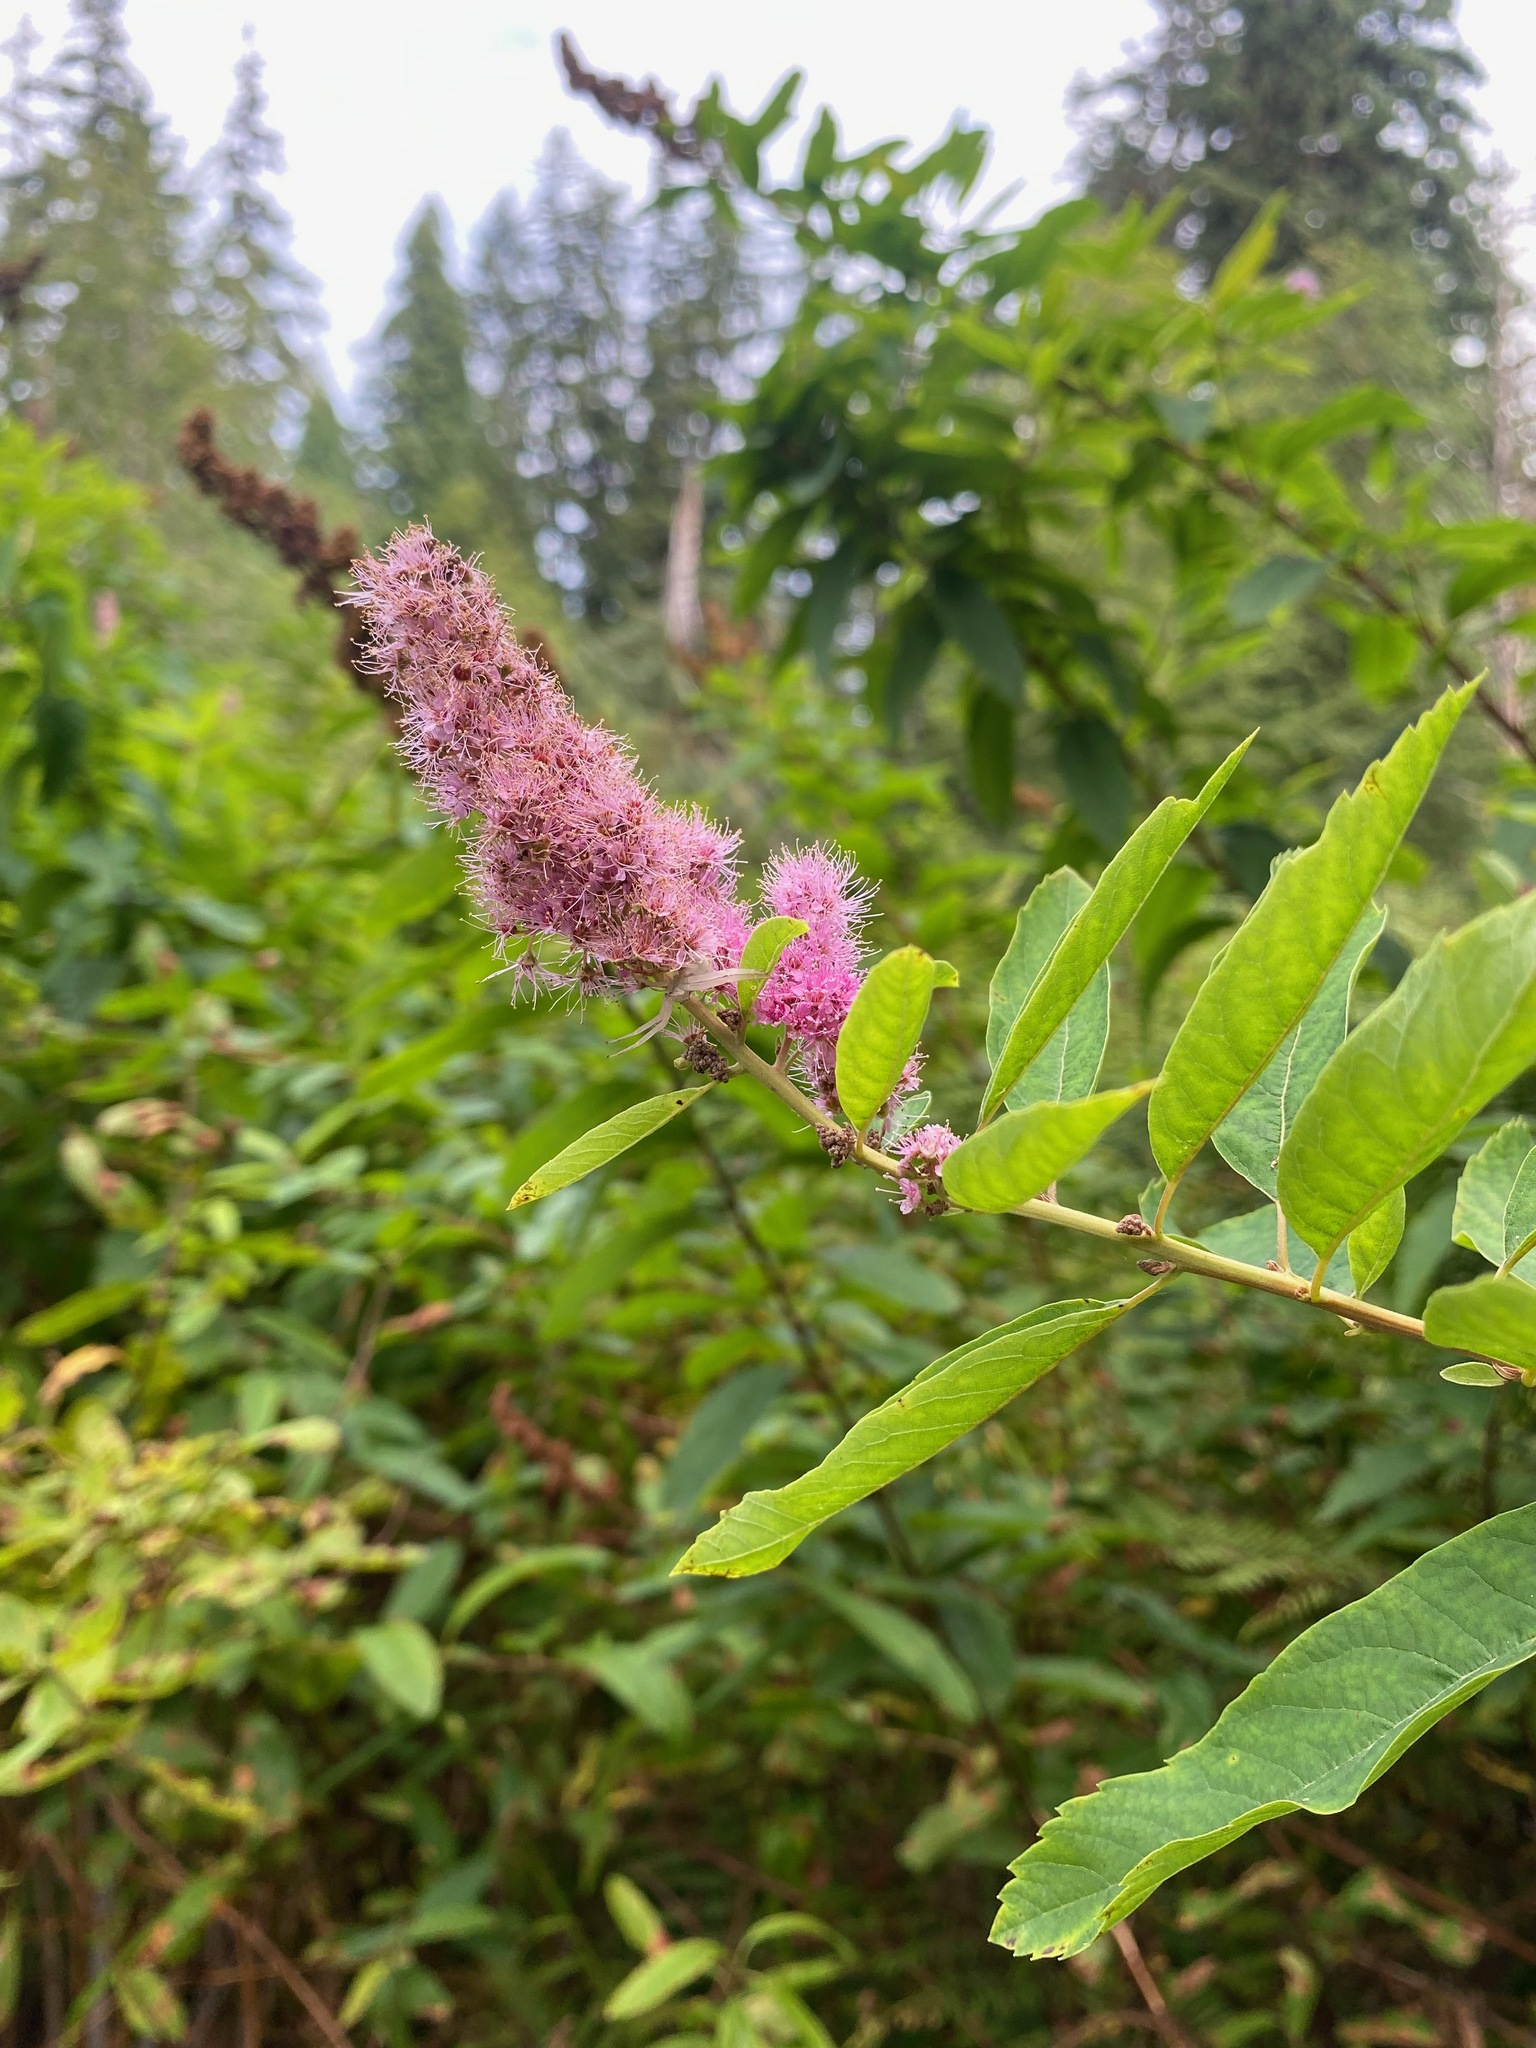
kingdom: Plantae
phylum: Tracheophyta
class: Magnoliopsida
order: Rosales
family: Rosaceae
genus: Spiraea
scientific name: Spiraea douglasii
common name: Steeplebush
